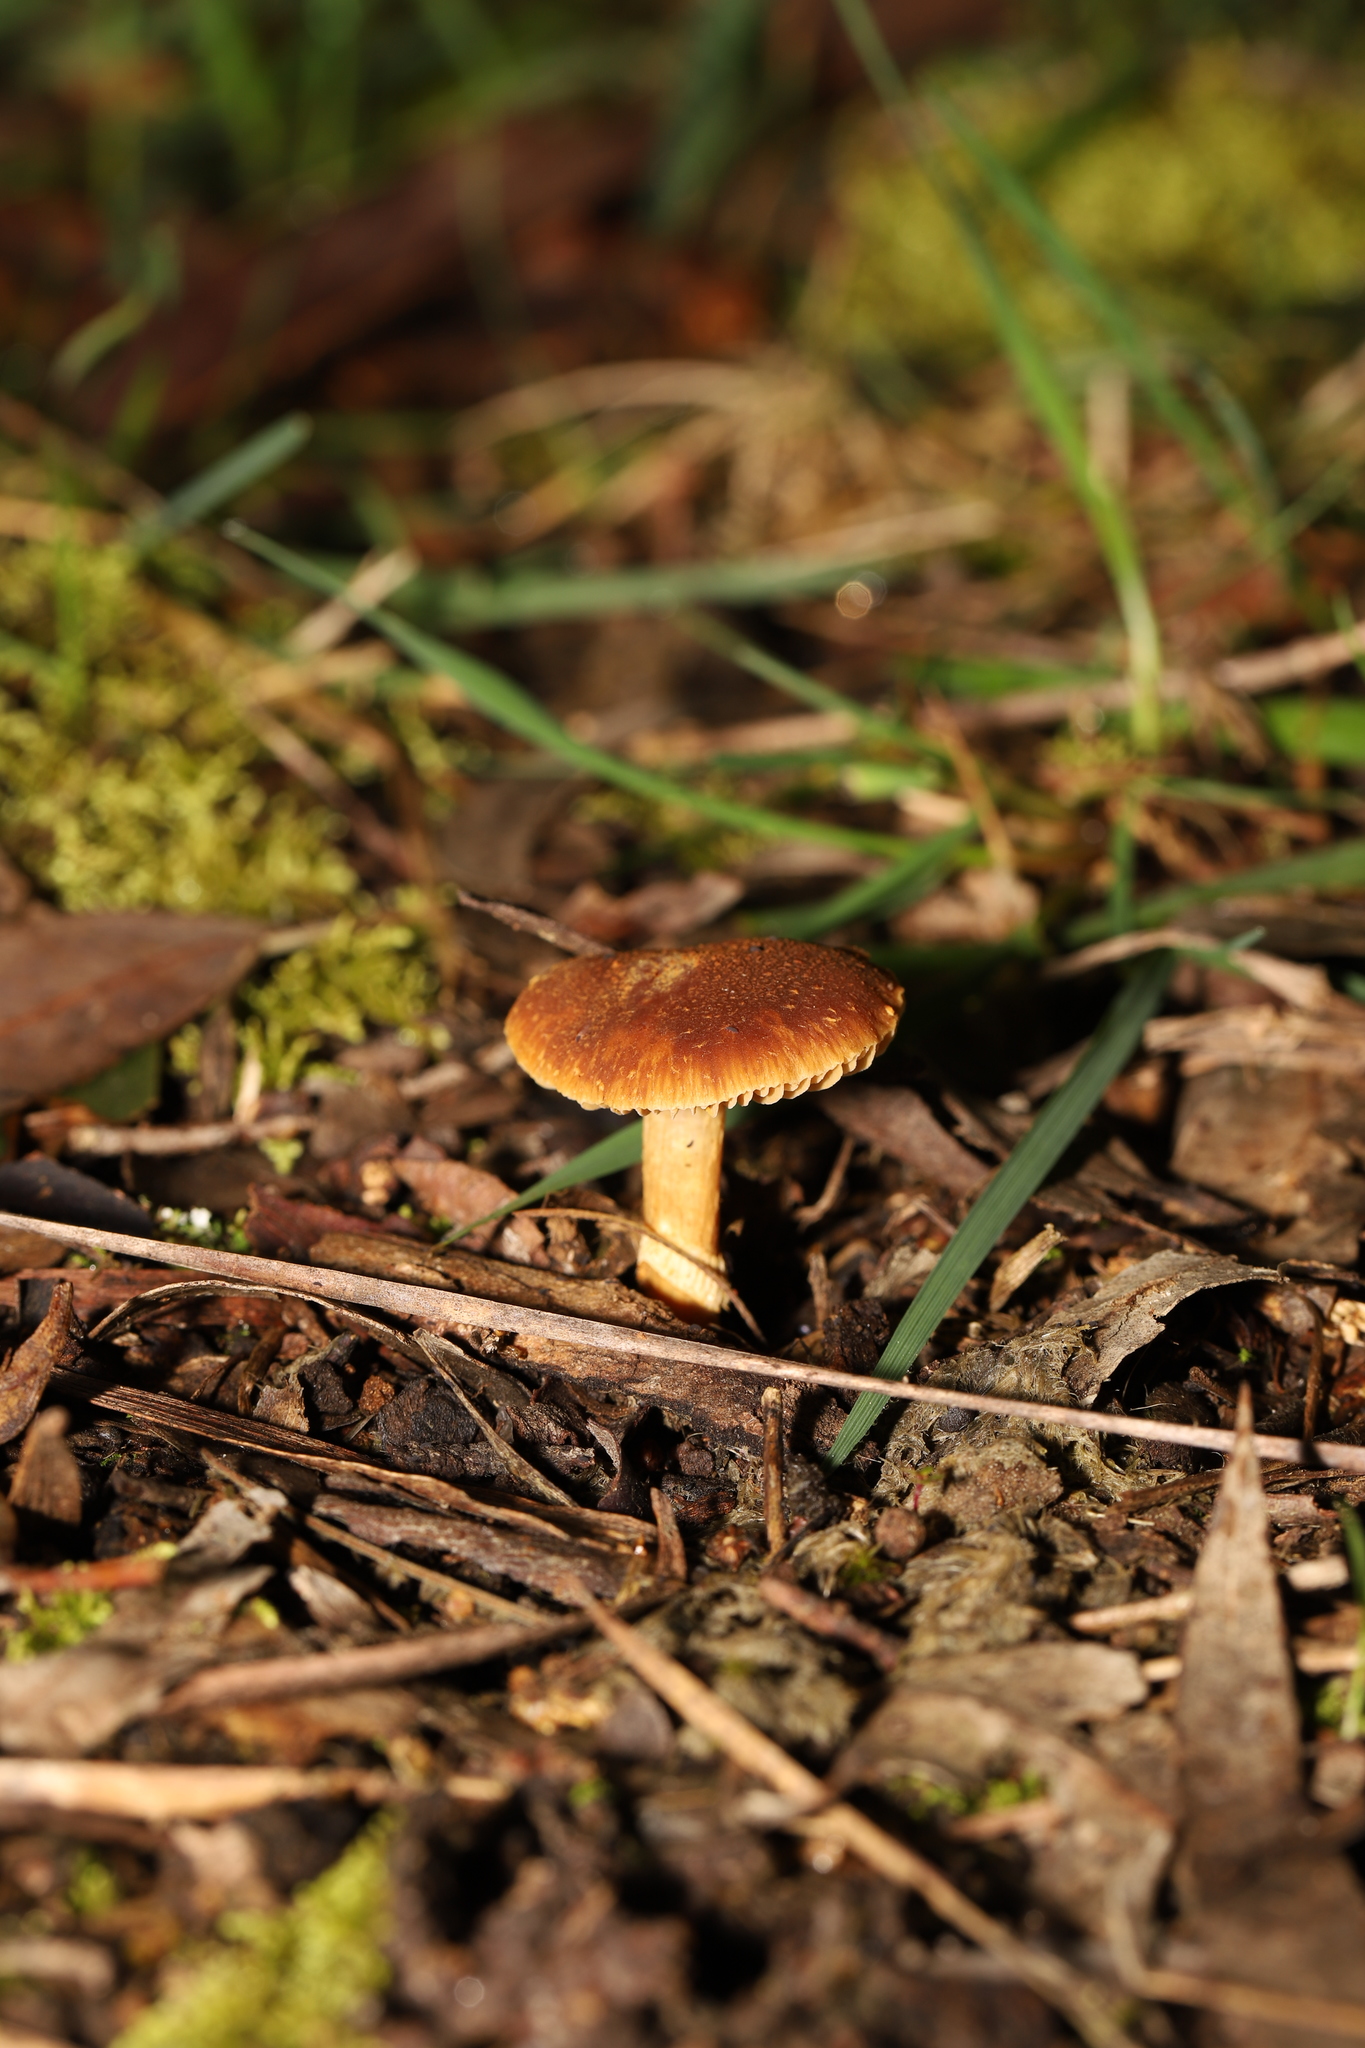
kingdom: Fungi
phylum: Basidiomycota
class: Agaricomycetes
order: Agaricales
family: Bolbitiaceae
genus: Descolea
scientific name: Descolea recedens
